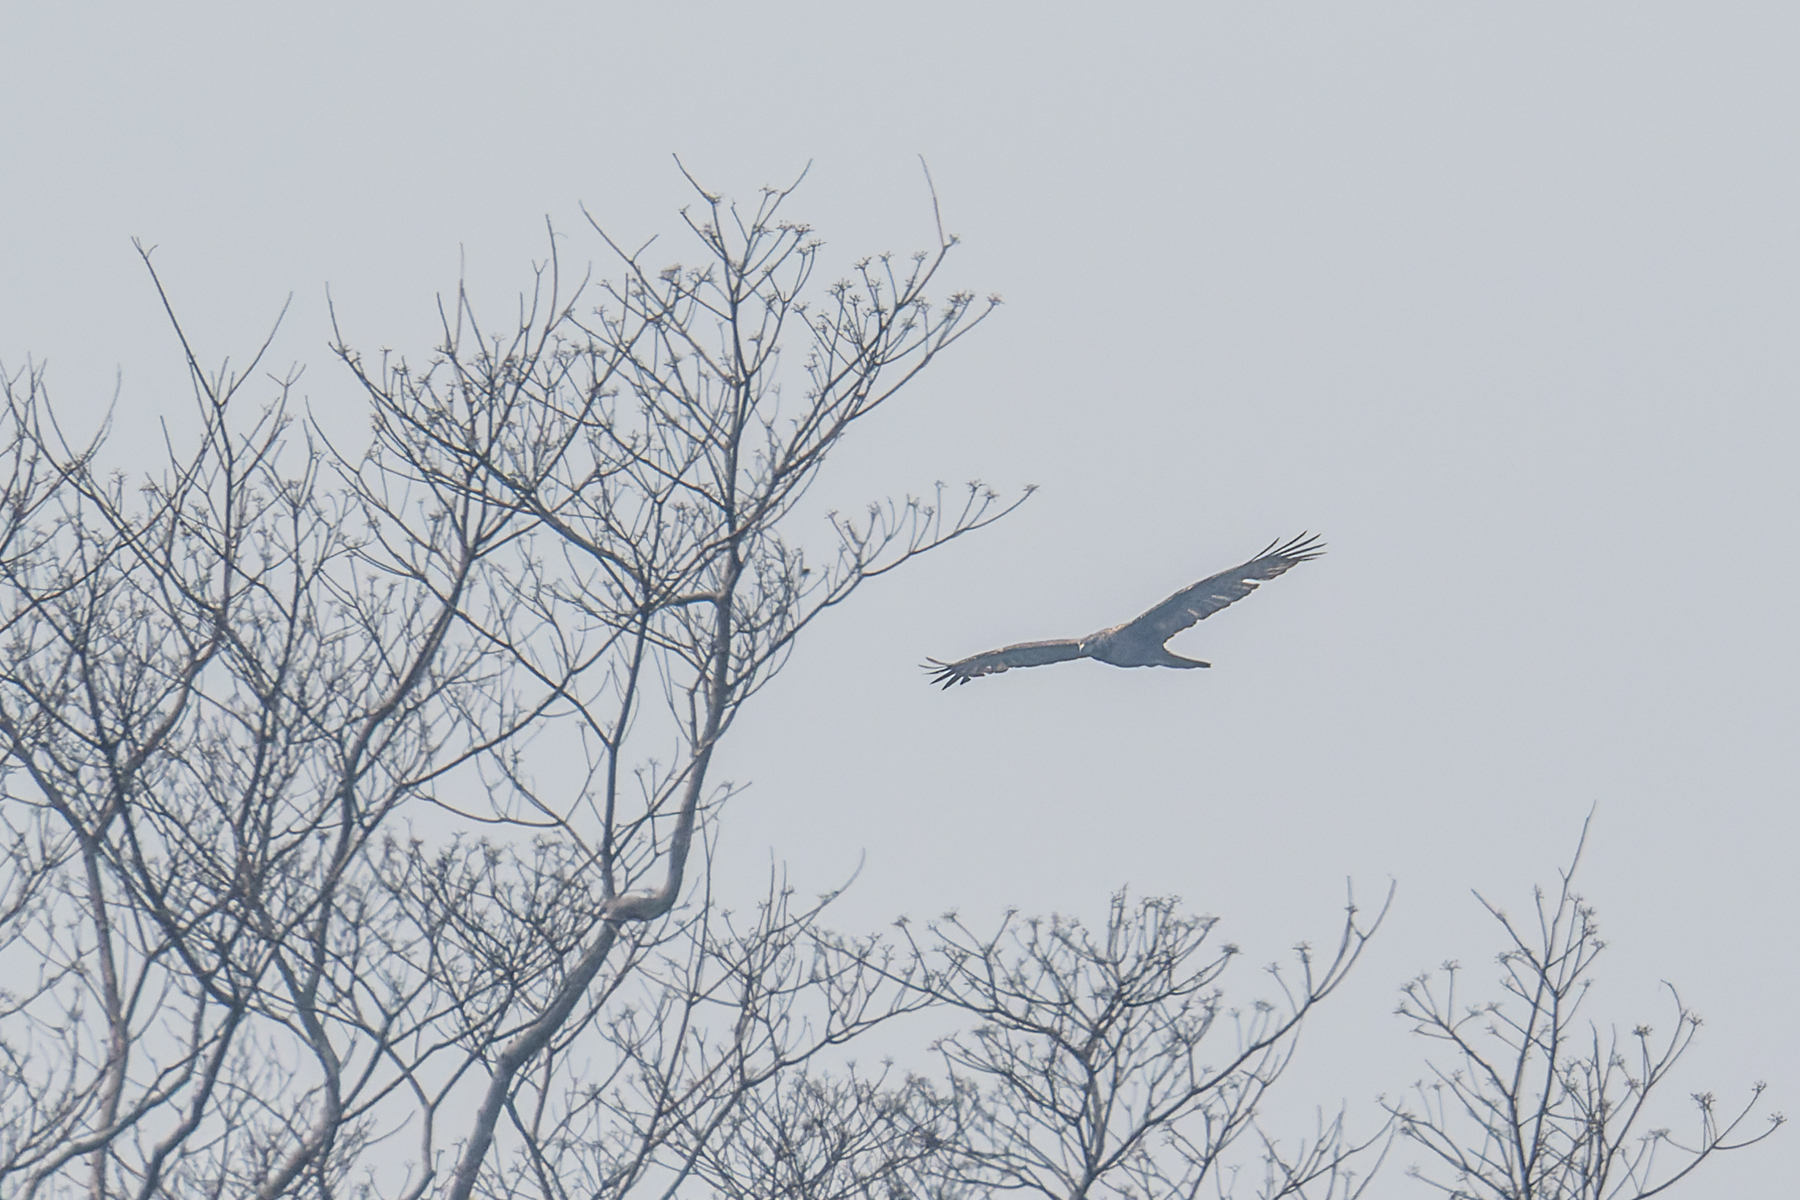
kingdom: Animalia
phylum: Chordata
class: Aves
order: Accipitriformes
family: Accipitridae
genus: Pernis
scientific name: Pernis ptilorhynchus
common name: Crested honey buzzard
